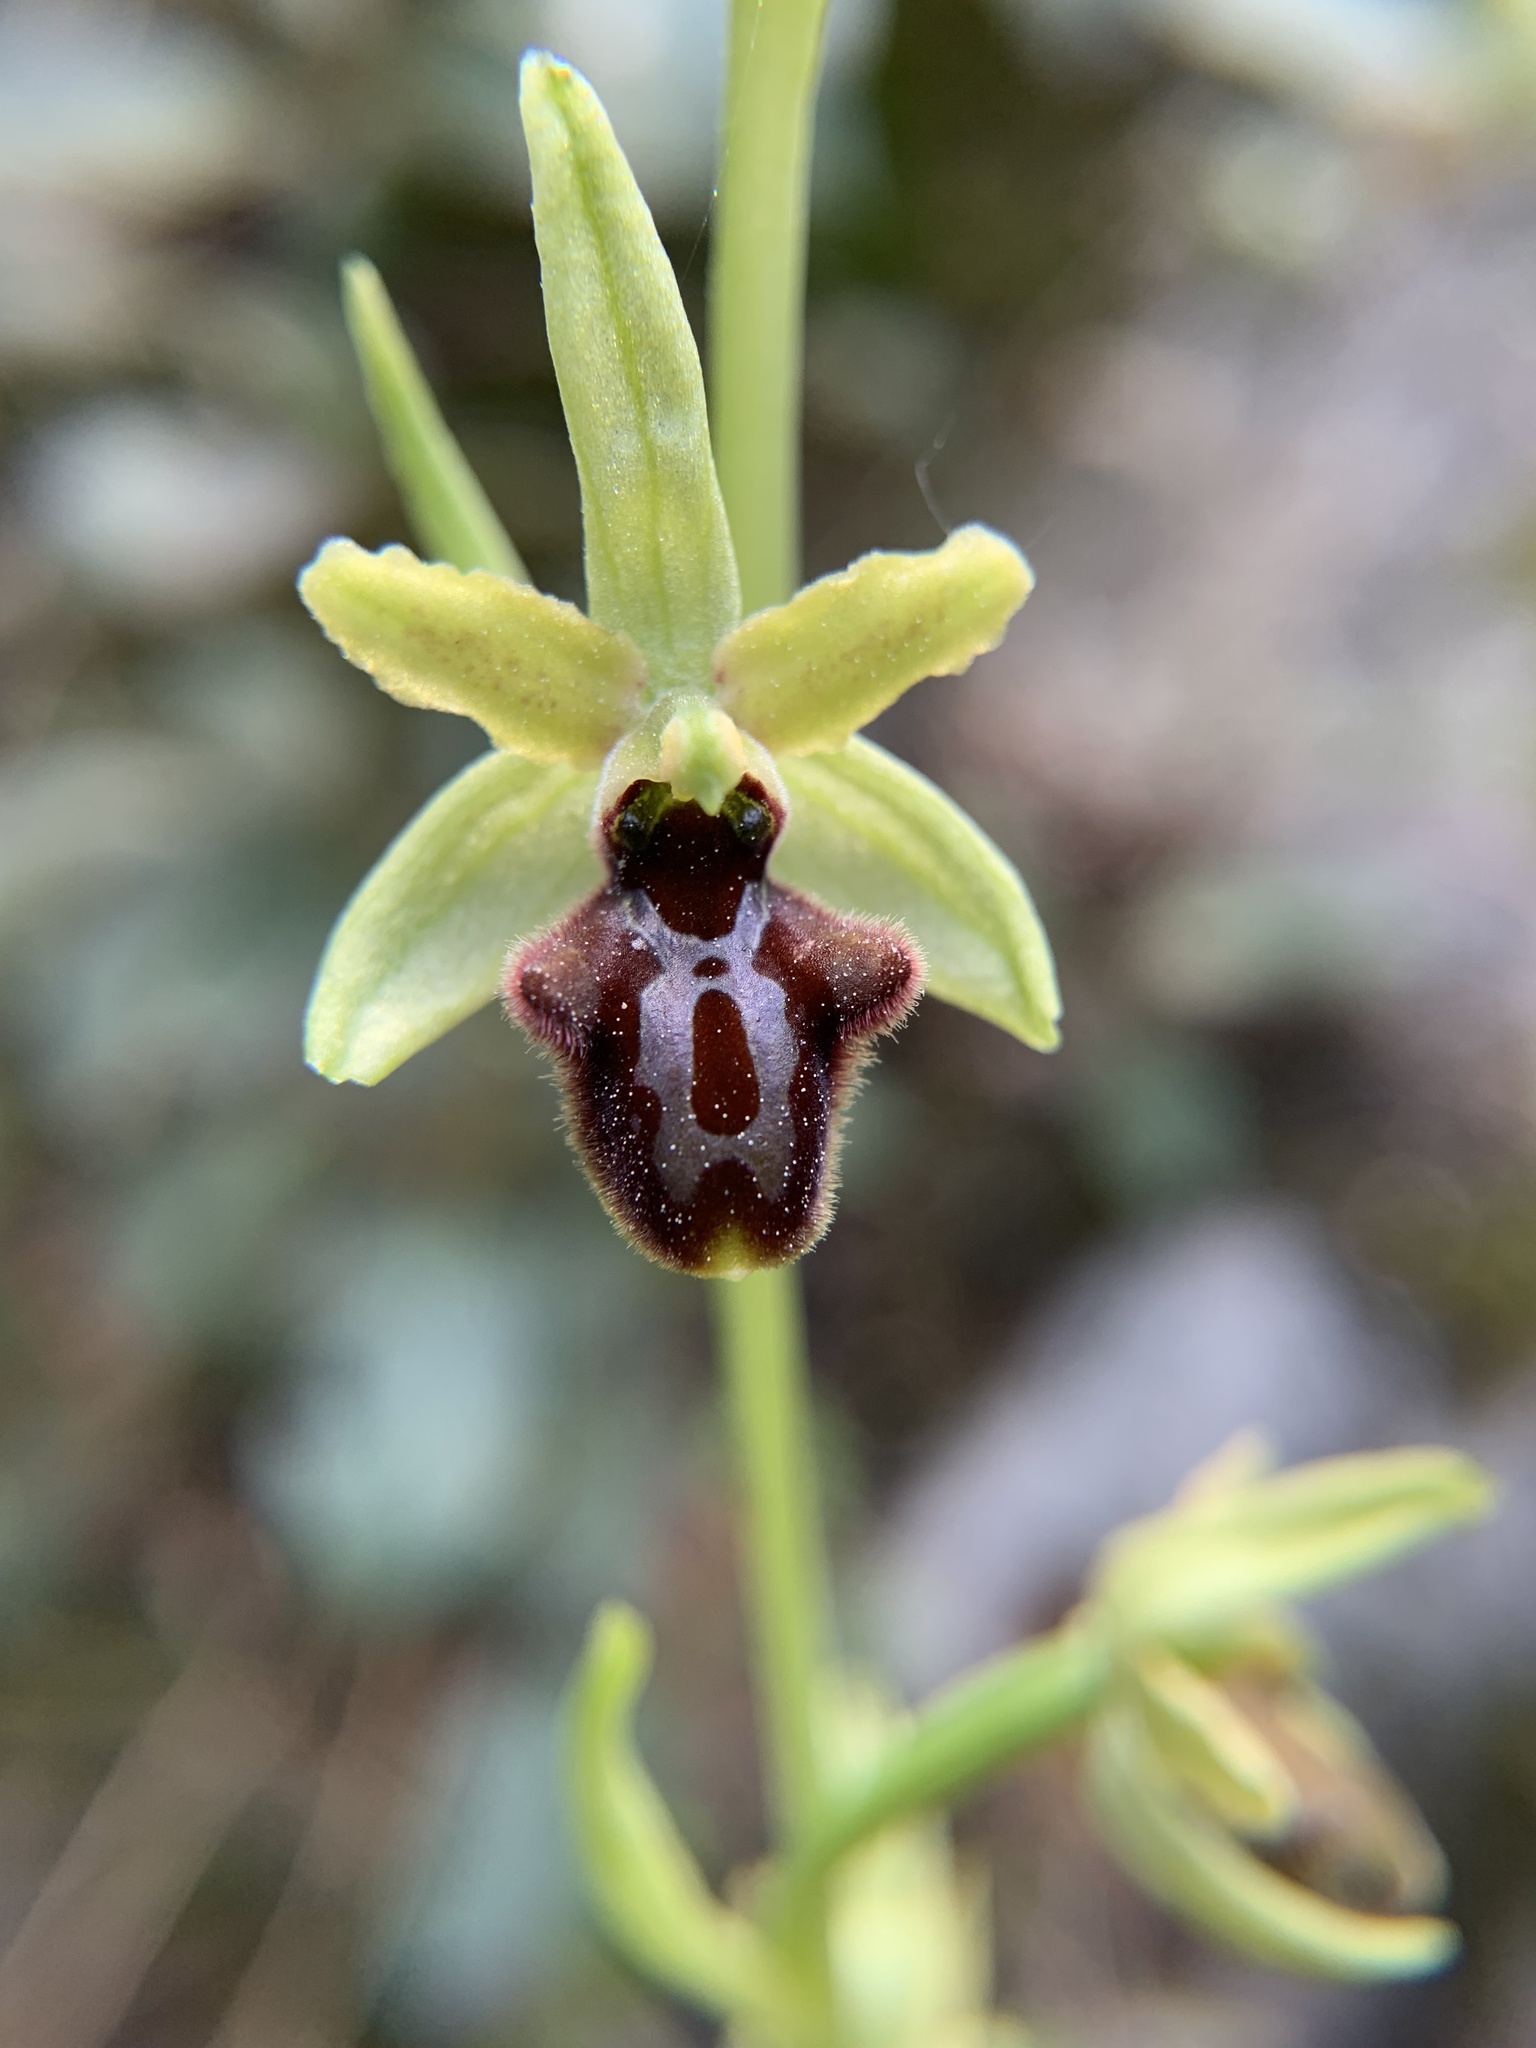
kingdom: Plantae
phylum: Tracheophyta
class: Liliopsida
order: Asparagales
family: Orchidaceae
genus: Ophrys
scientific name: Ophrys sphegodes
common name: Early spider-orchid
